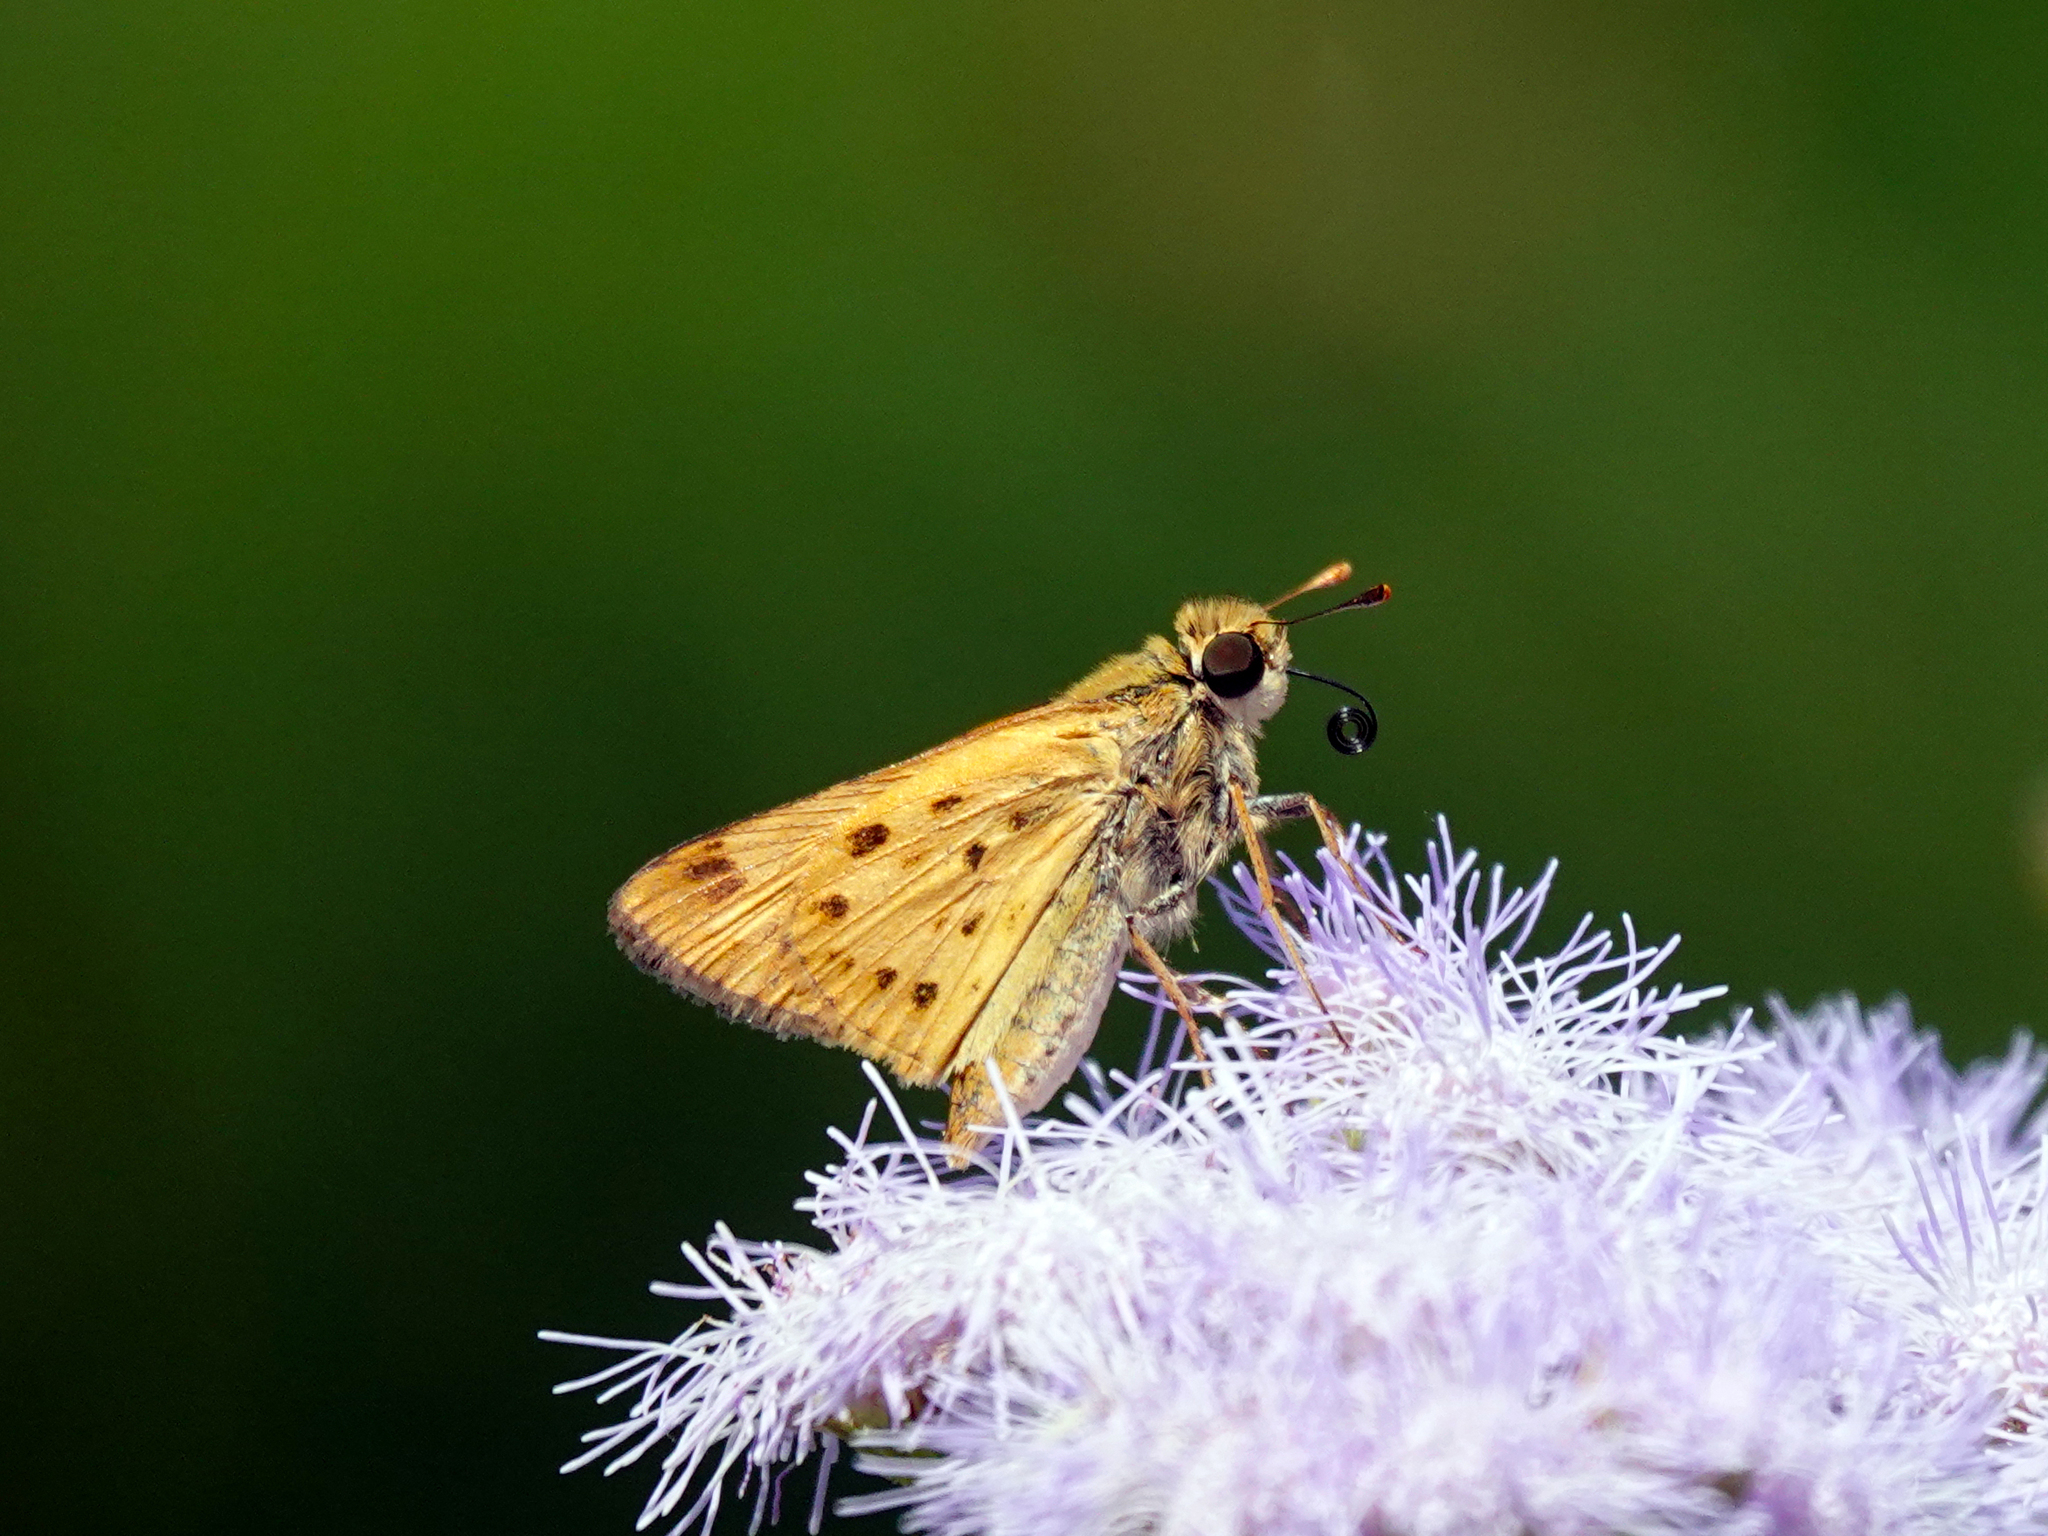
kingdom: Animalia
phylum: Arthropoda
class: Insecta
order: Lepidoptera
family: Hesperiidae
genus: Hylephila
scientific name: Hylephila phyleus
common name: Fiery skipper
